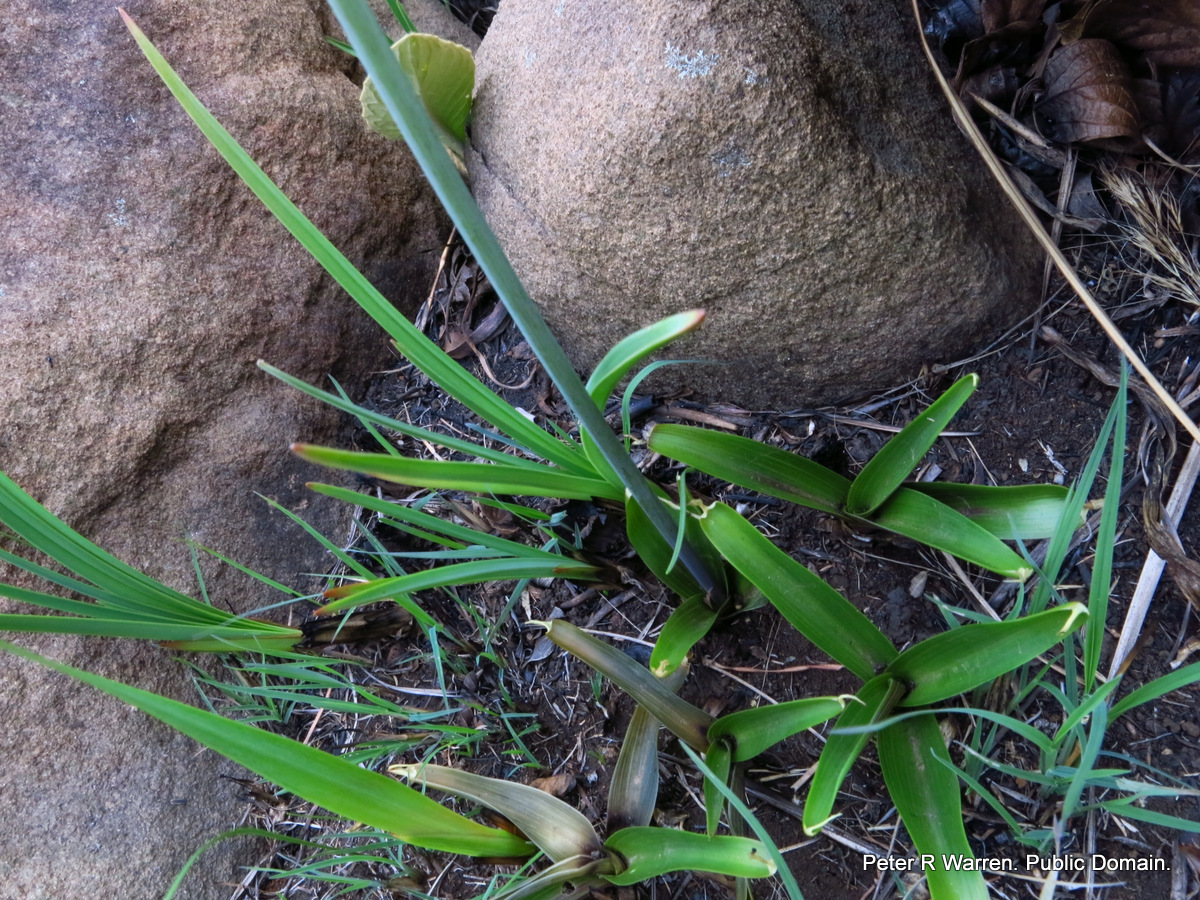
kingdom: Plantae
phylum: Tracheophyta
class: Liliopsida
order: Asparagales
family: Asparagaceae
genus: Merwilla
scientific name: Merwilla plumbea
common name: Blue-squill
